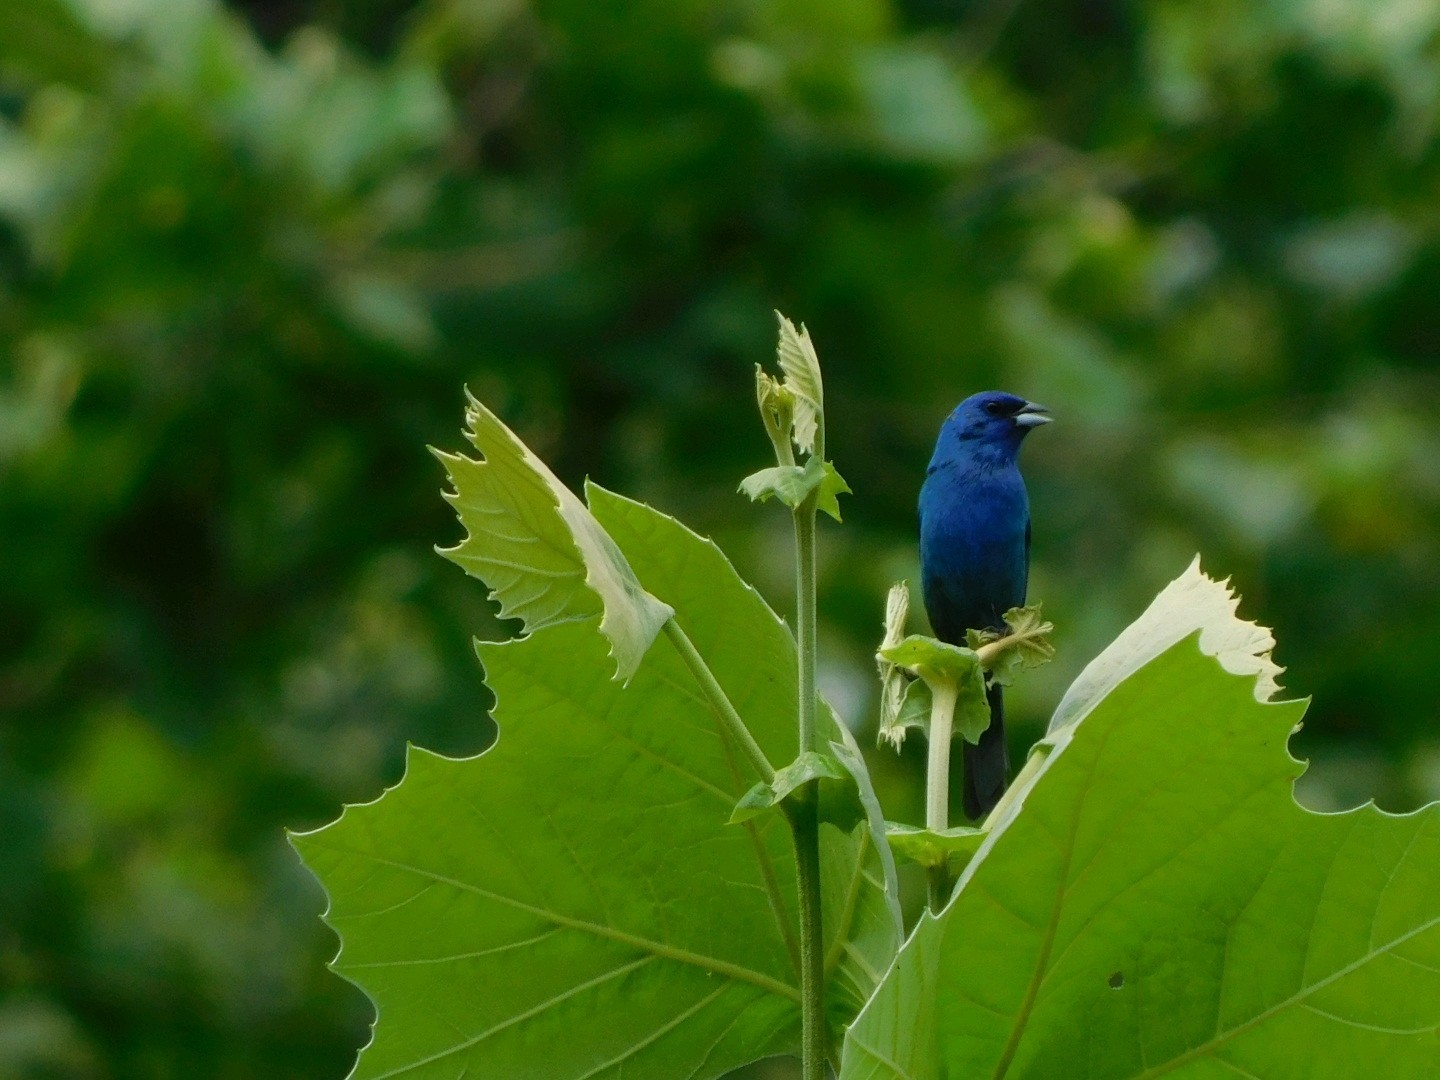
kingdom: Animalia
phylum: Chordata
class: Aves
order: Passeriformes
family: Cardinalidae
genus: Passerina
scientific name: Passerina cyanea
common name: Indigo bunting
